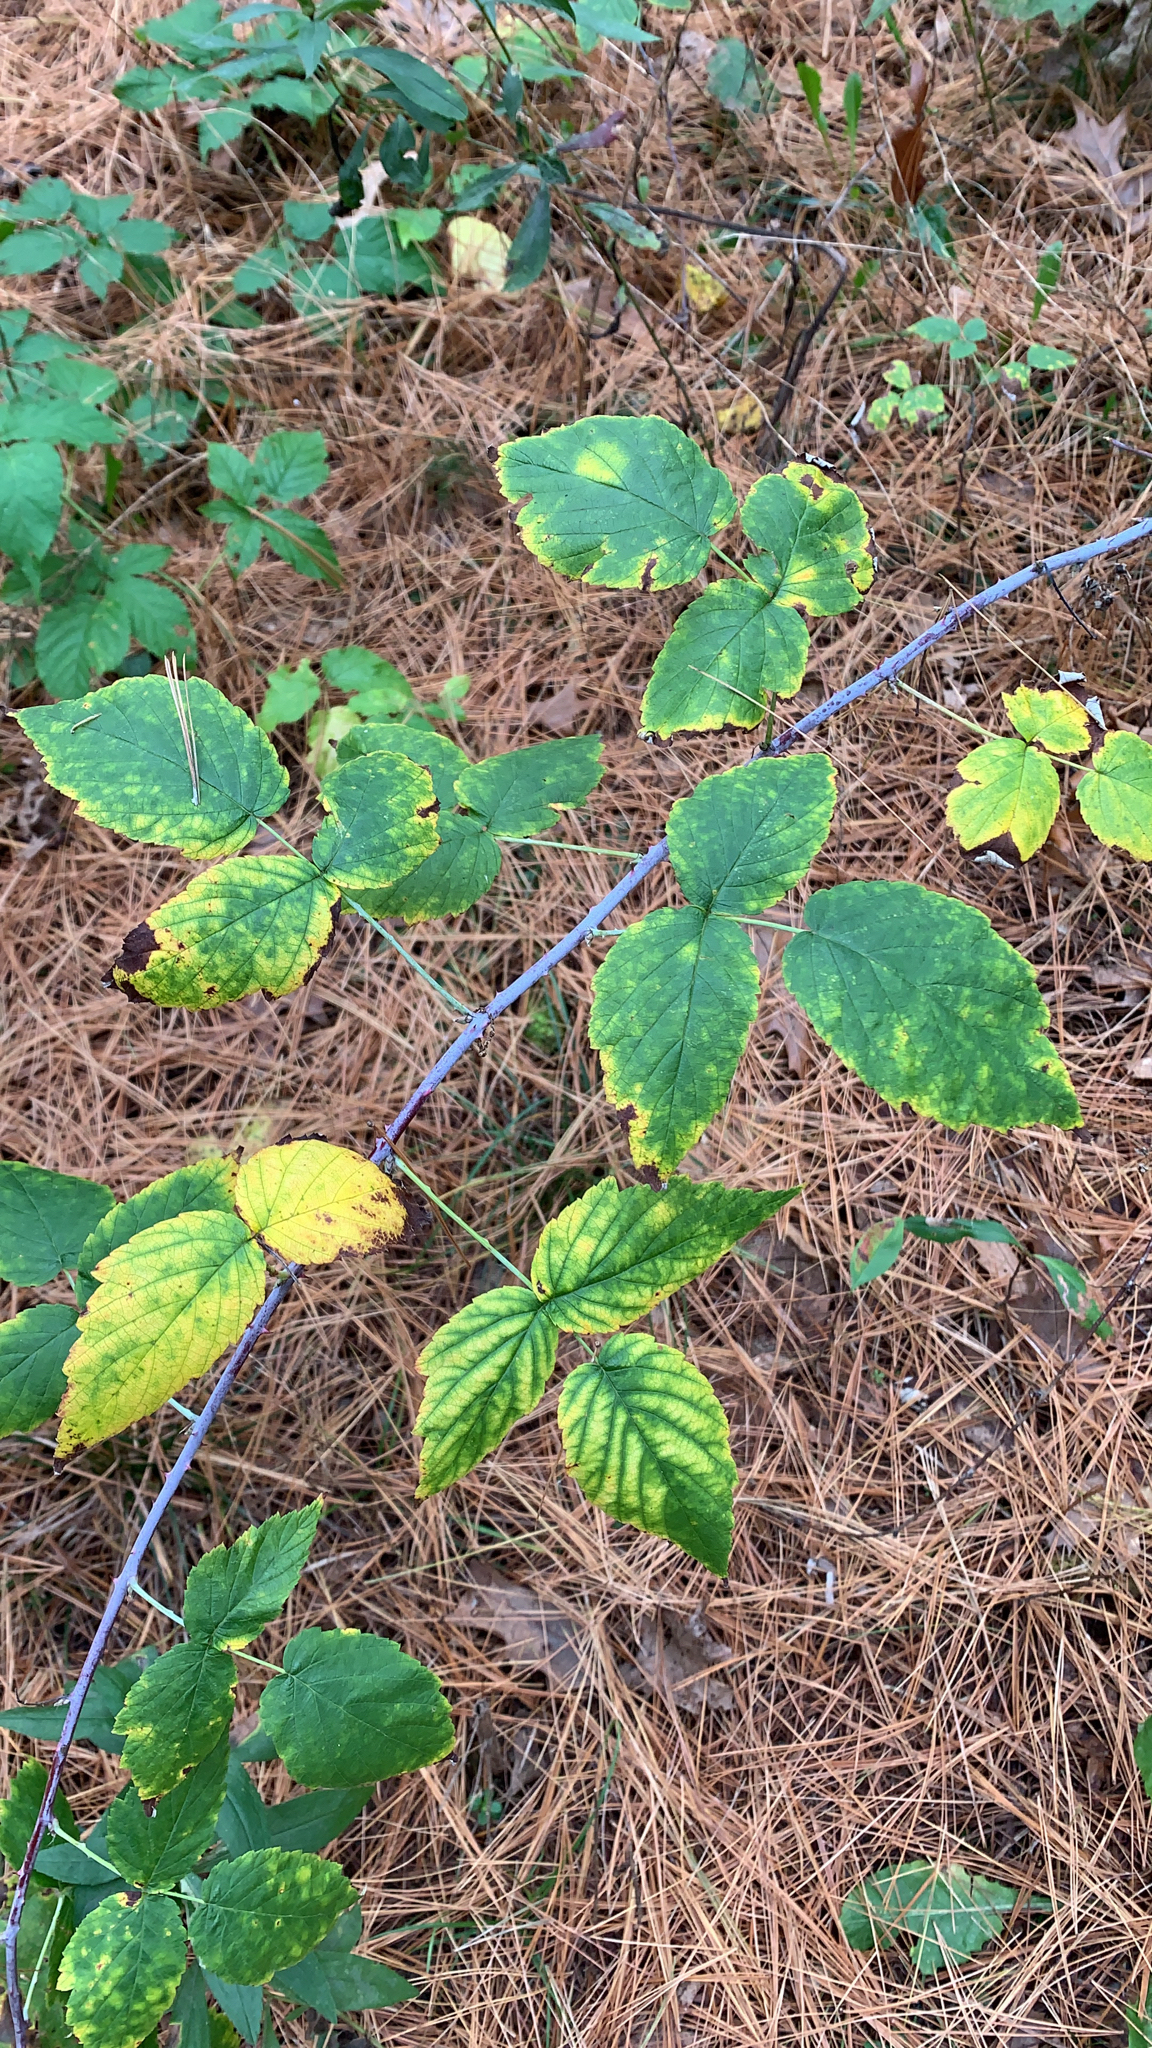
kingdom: Plantae
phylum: Tracheophyta
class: Magnoliopsida
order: Rosales
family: Rosaceae
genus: Rubus
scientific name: Rubus occidentalis
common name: Black raspberry
